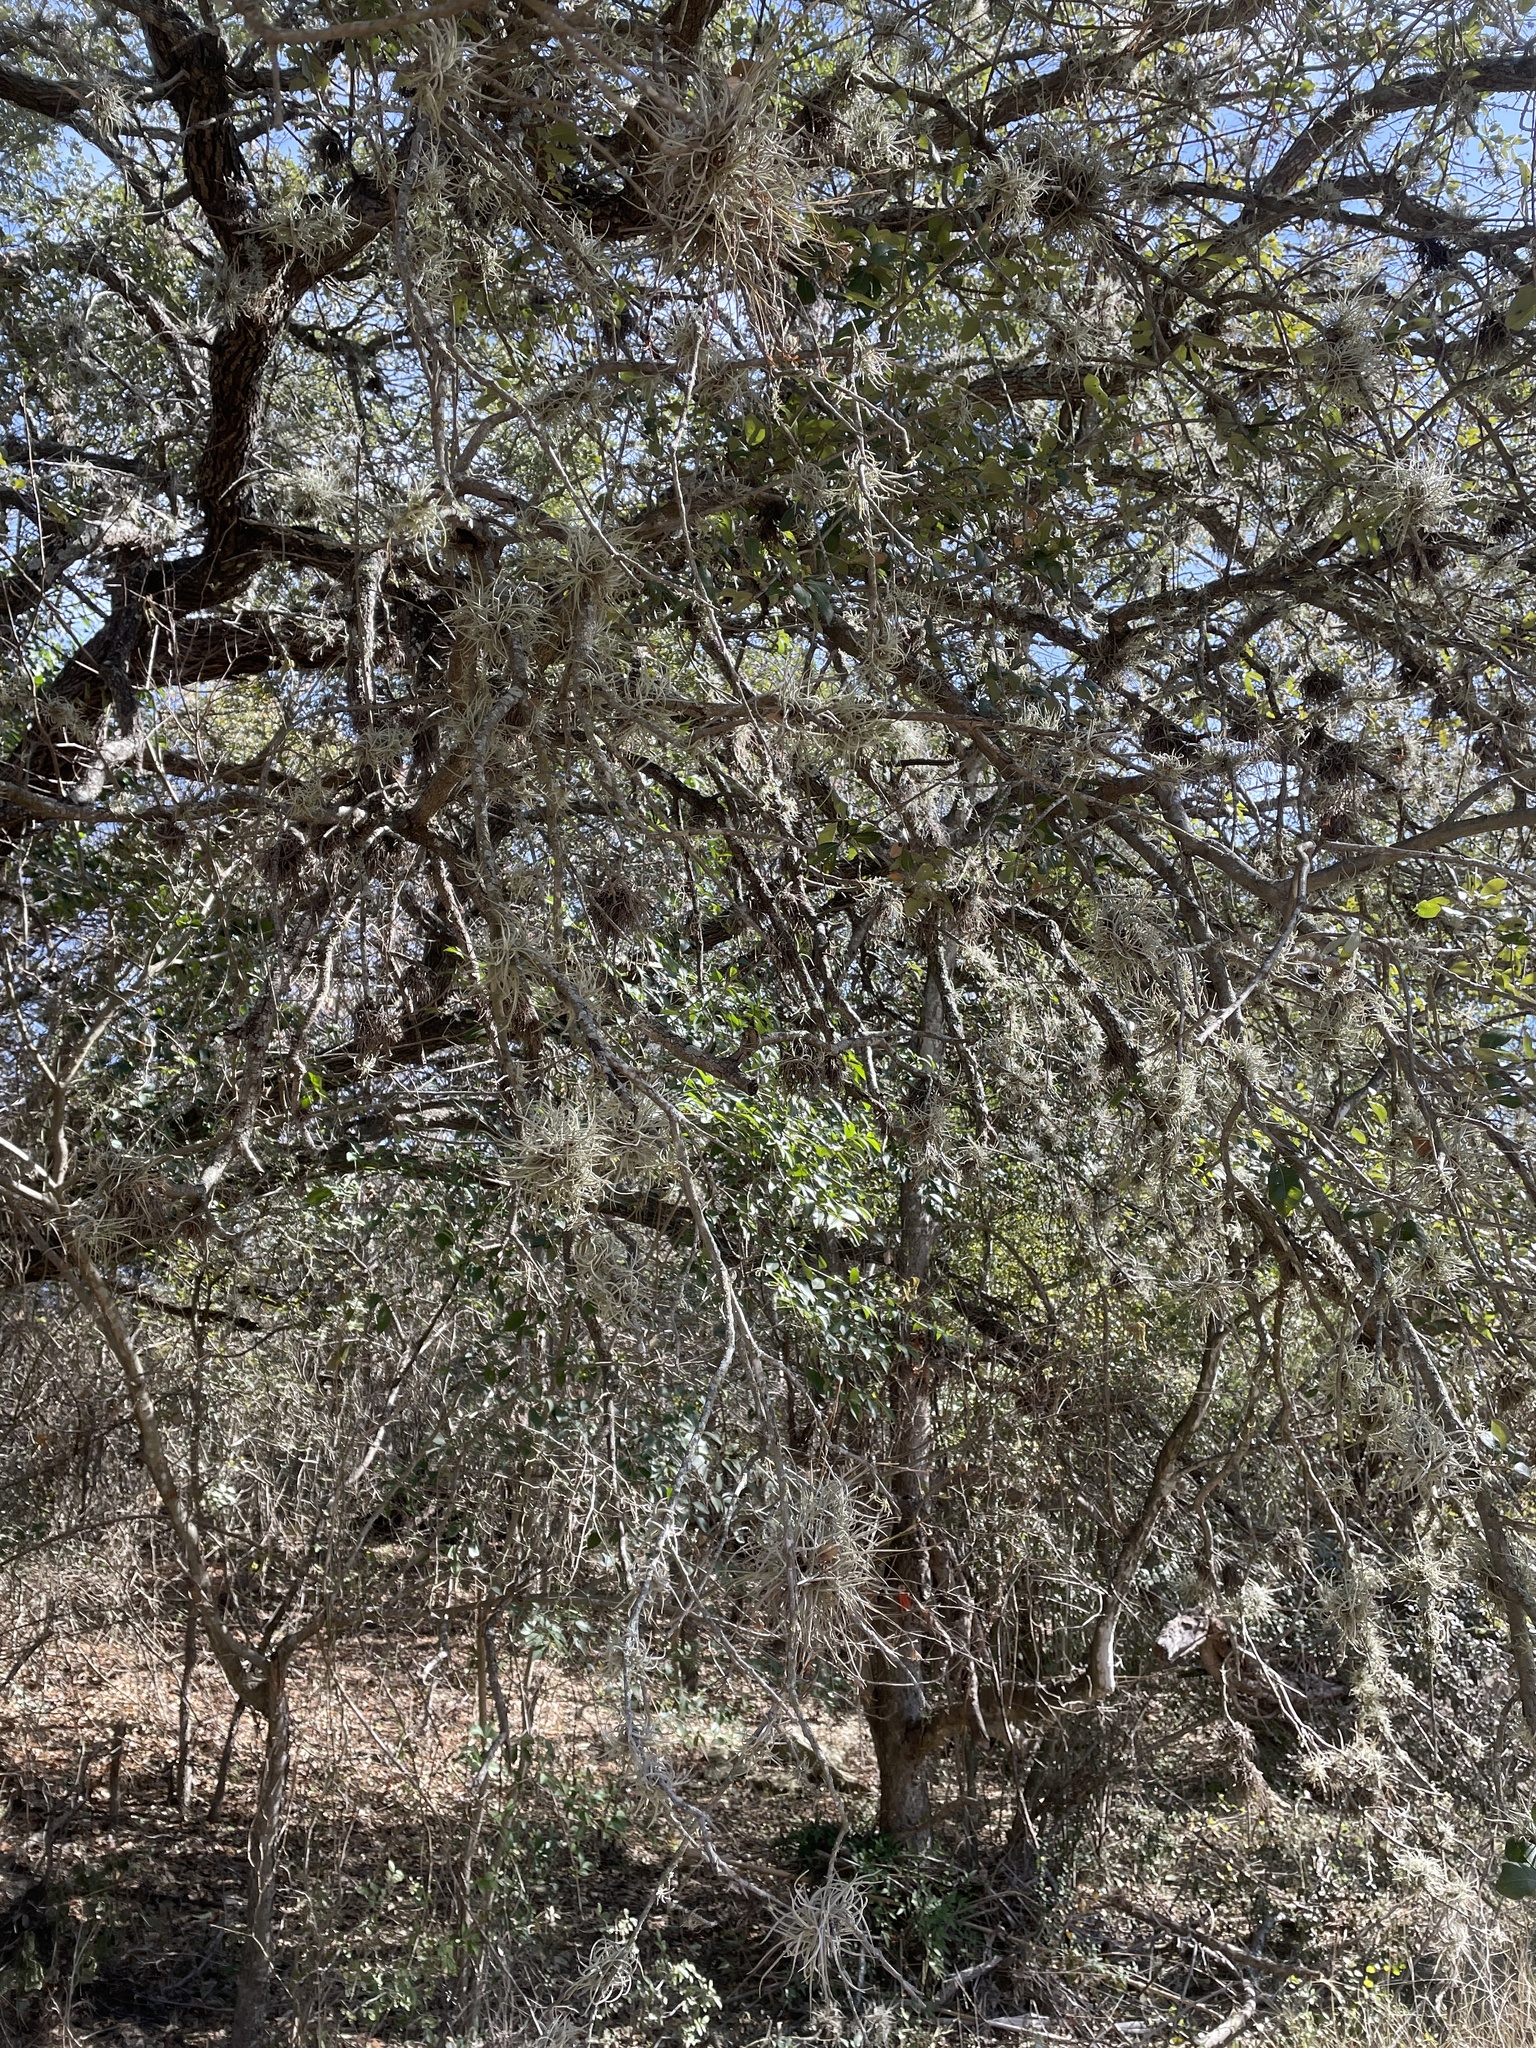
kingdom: Plantae
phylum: Tracheophyta
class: Liliopsida
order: Poales
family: Bromeliaceae
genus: Tillandsia
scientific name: Tillandsia recurvata
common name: Small ballmoss
